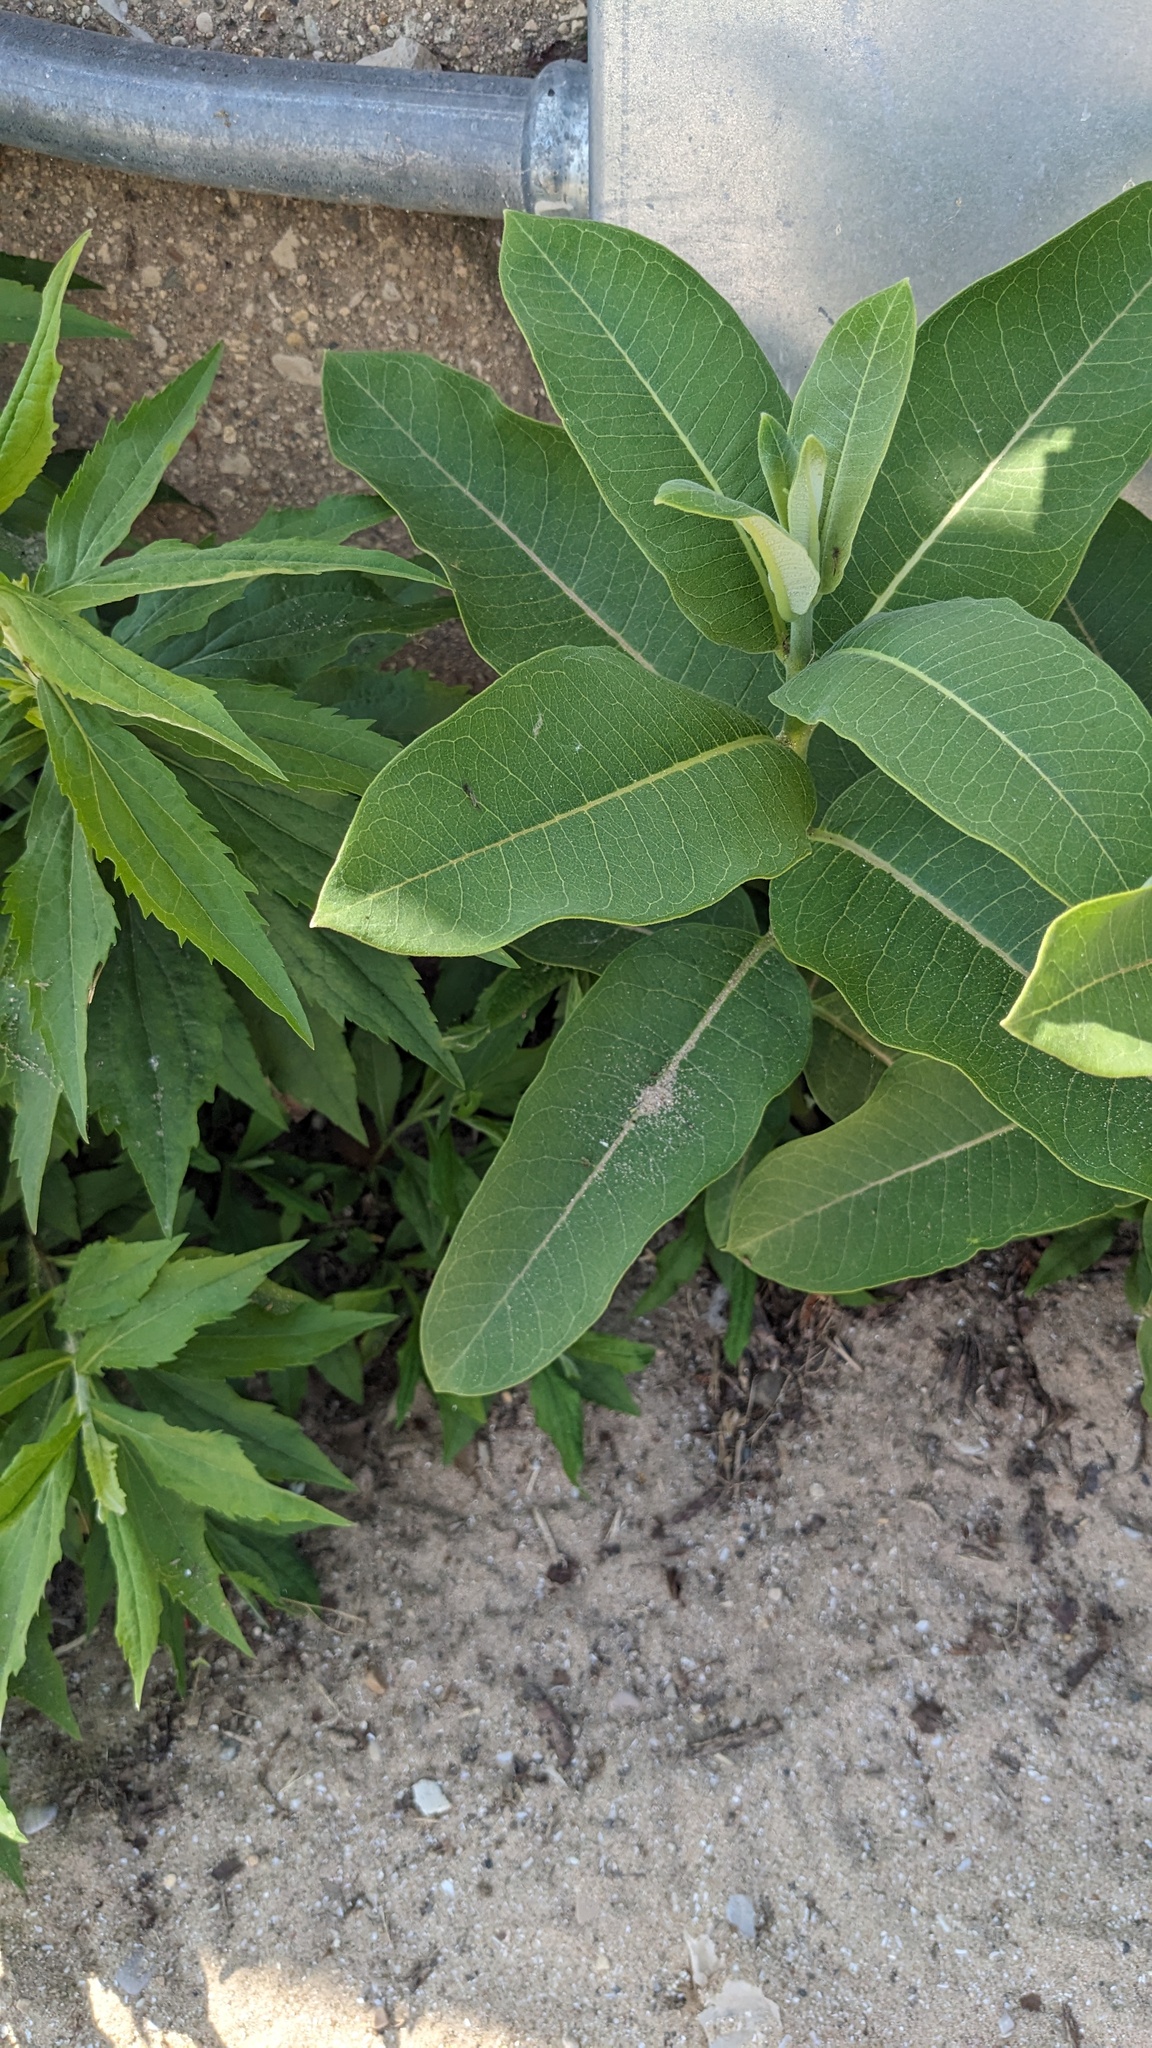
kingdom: Plantae
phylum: Tracheophyta
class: Magnoliopsida
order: Gentianales
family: Apocynaceae
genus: Asclepias
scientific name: Asclepias syriaca
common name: Common milkweed
